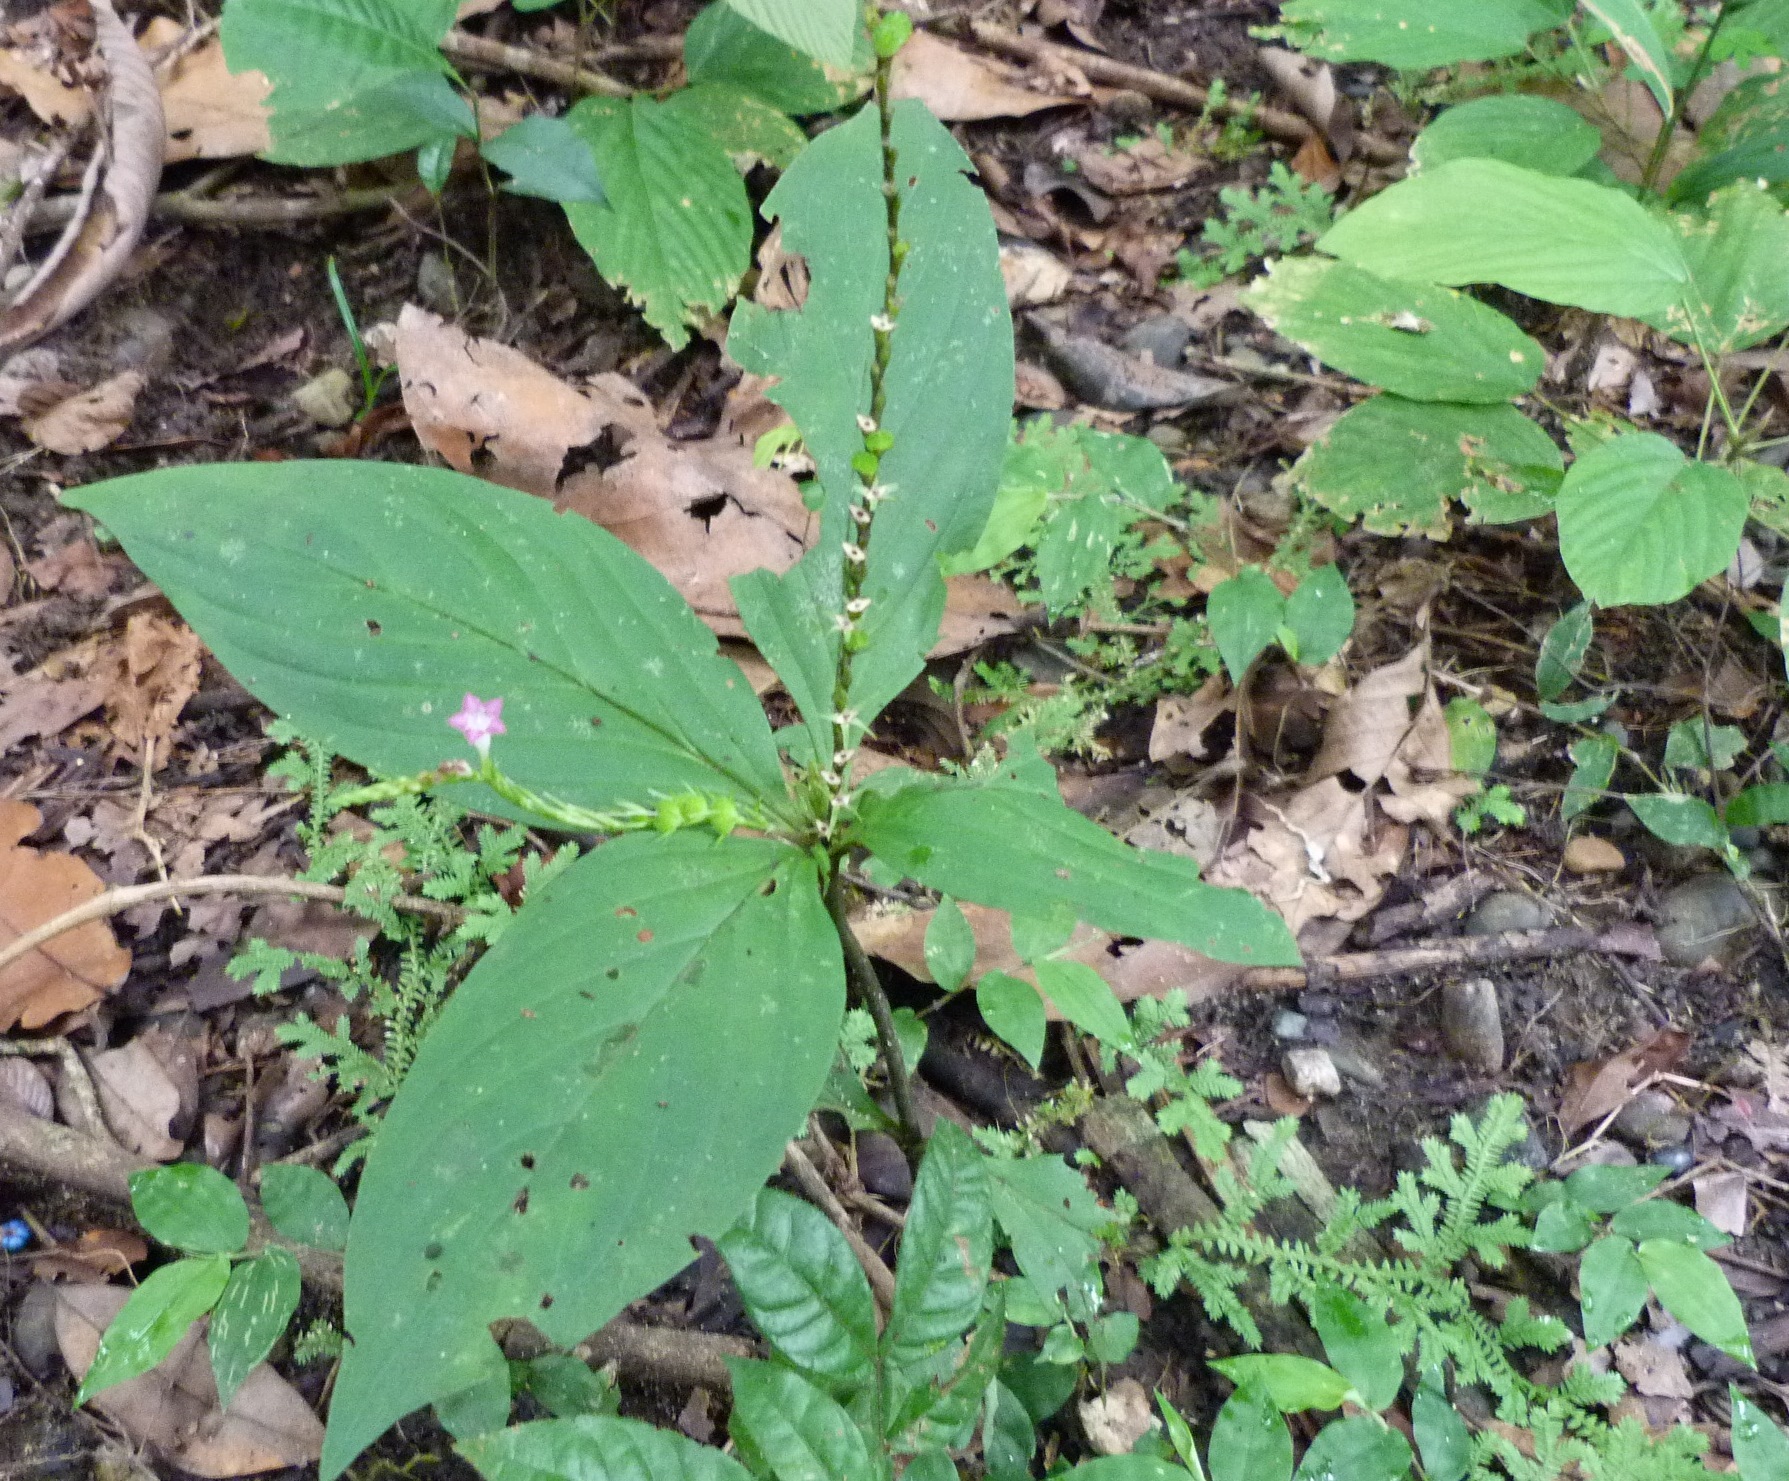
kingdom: Plantae
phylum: Tracheophyta
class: Magnoliopsida
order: Gentianales
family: Loganiaceae
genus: Spigelia
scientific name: Spigelia anthelmia
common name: West indian-pink
